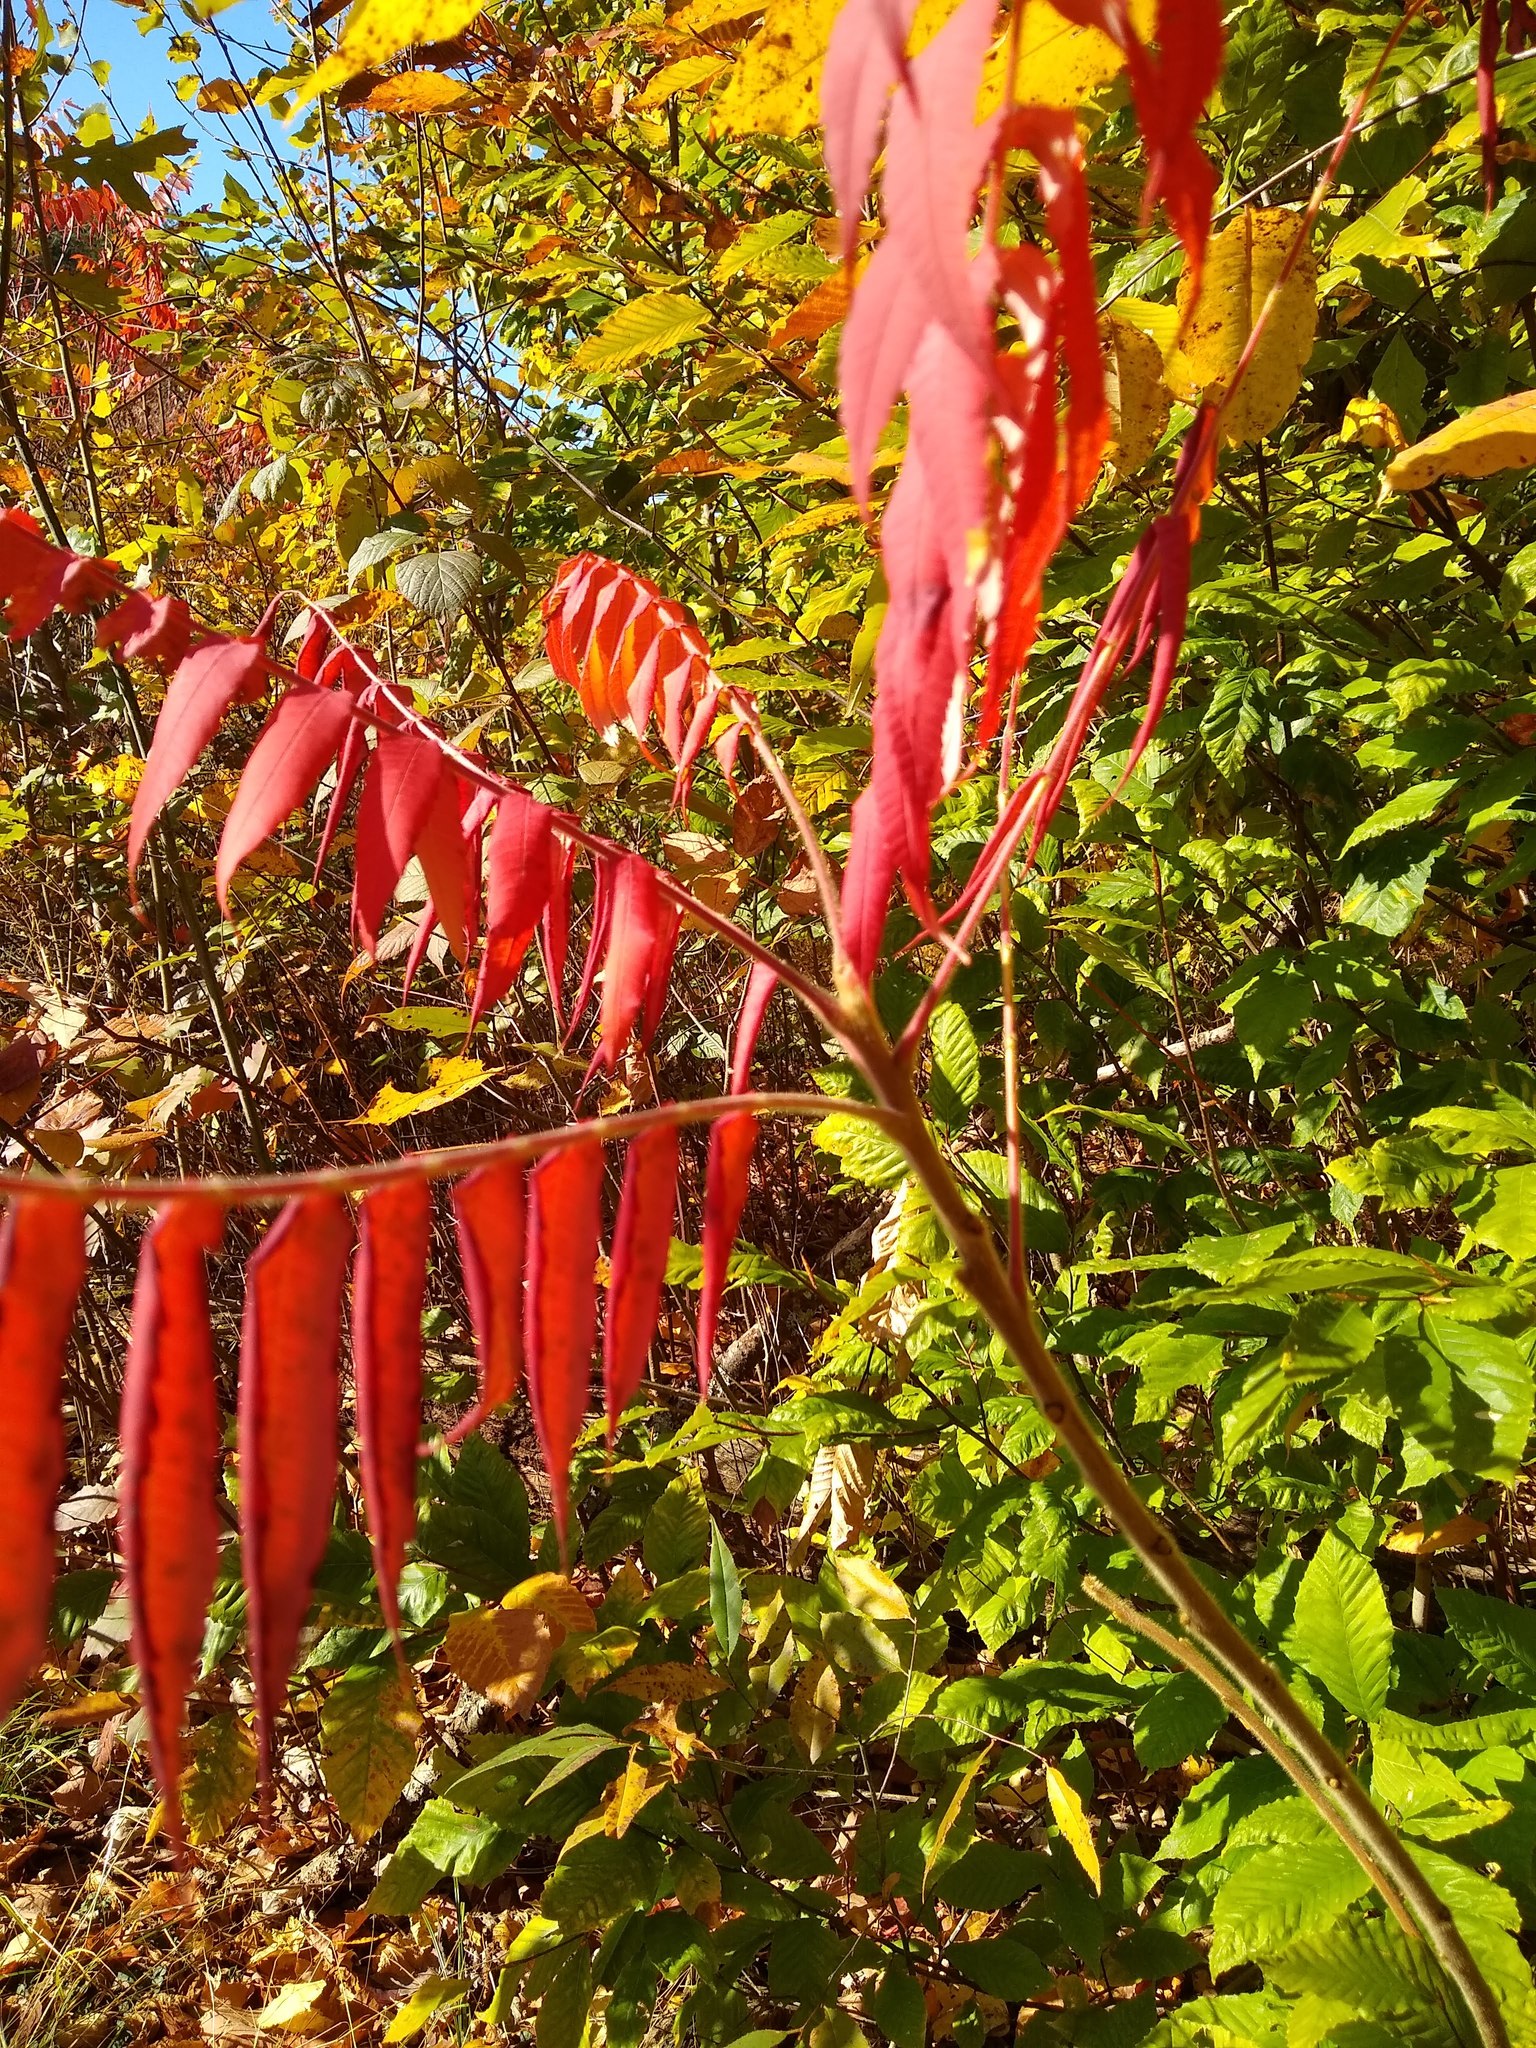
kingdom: Plantae
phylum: Tracheophyta
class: Magnoliopsida
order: Sapindales
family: Anacardiaceae
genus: Rhus
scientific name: Rhus typhina
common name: Staghorn sumac
